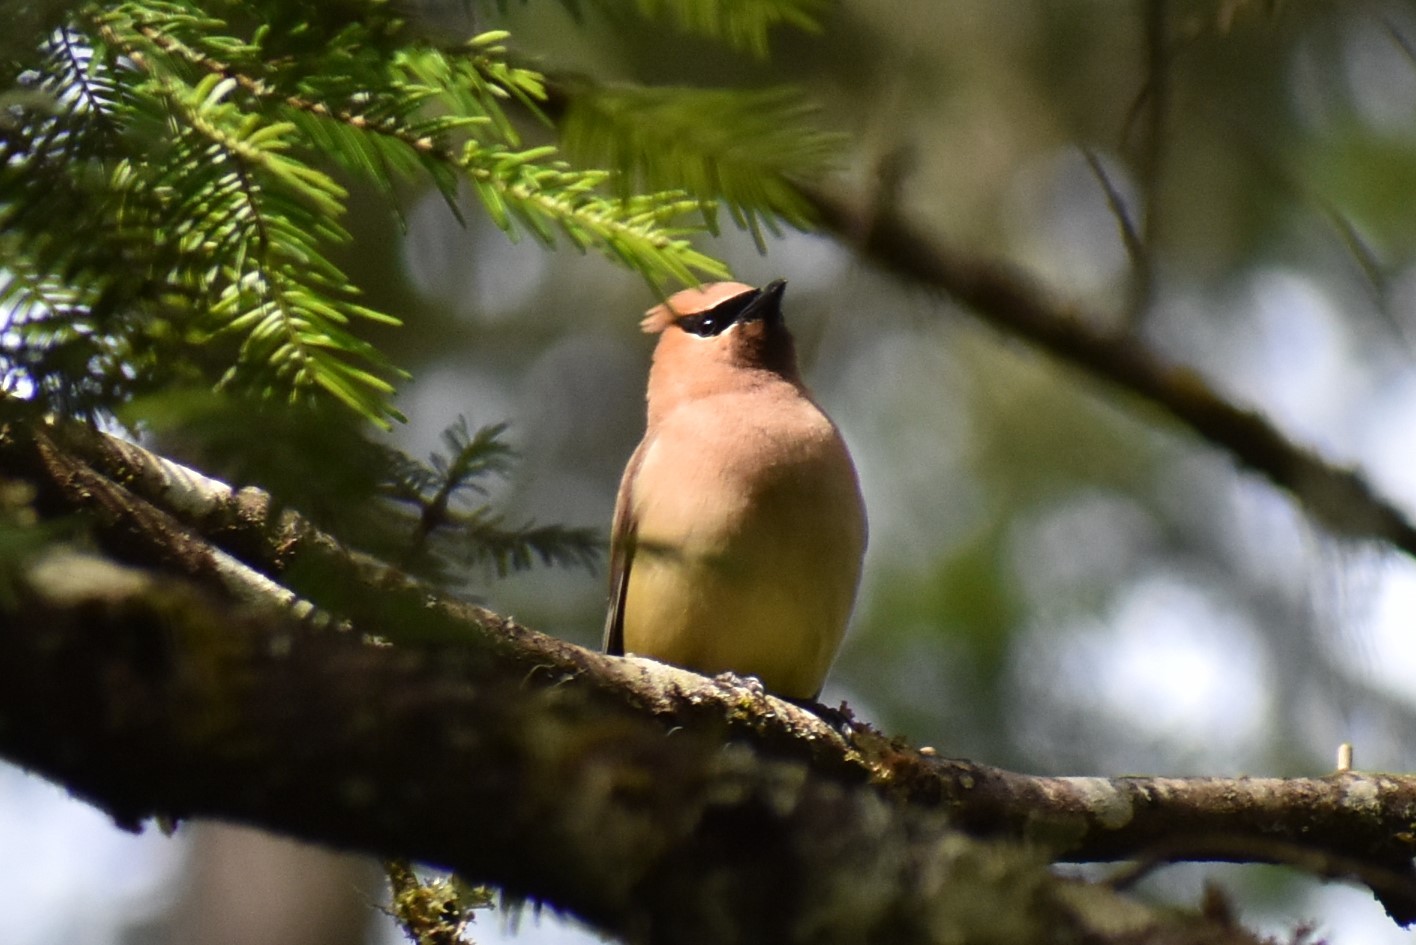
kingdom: Animalia
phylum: Chordata
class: Aves
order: Passeriformes
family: Bombycillidae
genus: Bombycilla
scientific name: Bombycilla cedrorum
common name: Cedar waxwing
